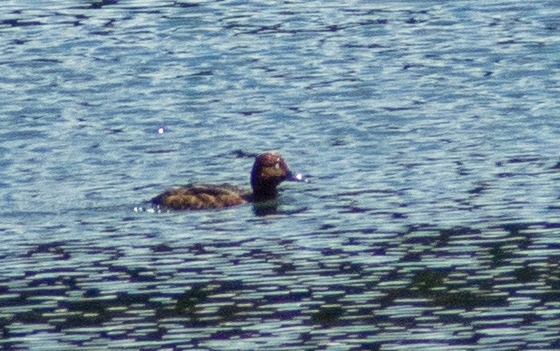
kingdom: Animalia
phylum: Chordata
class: Aves
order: Anseriformes
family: Anatidae
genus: Aythya
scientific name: Aythya nyroca
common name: Ferruginous duck
